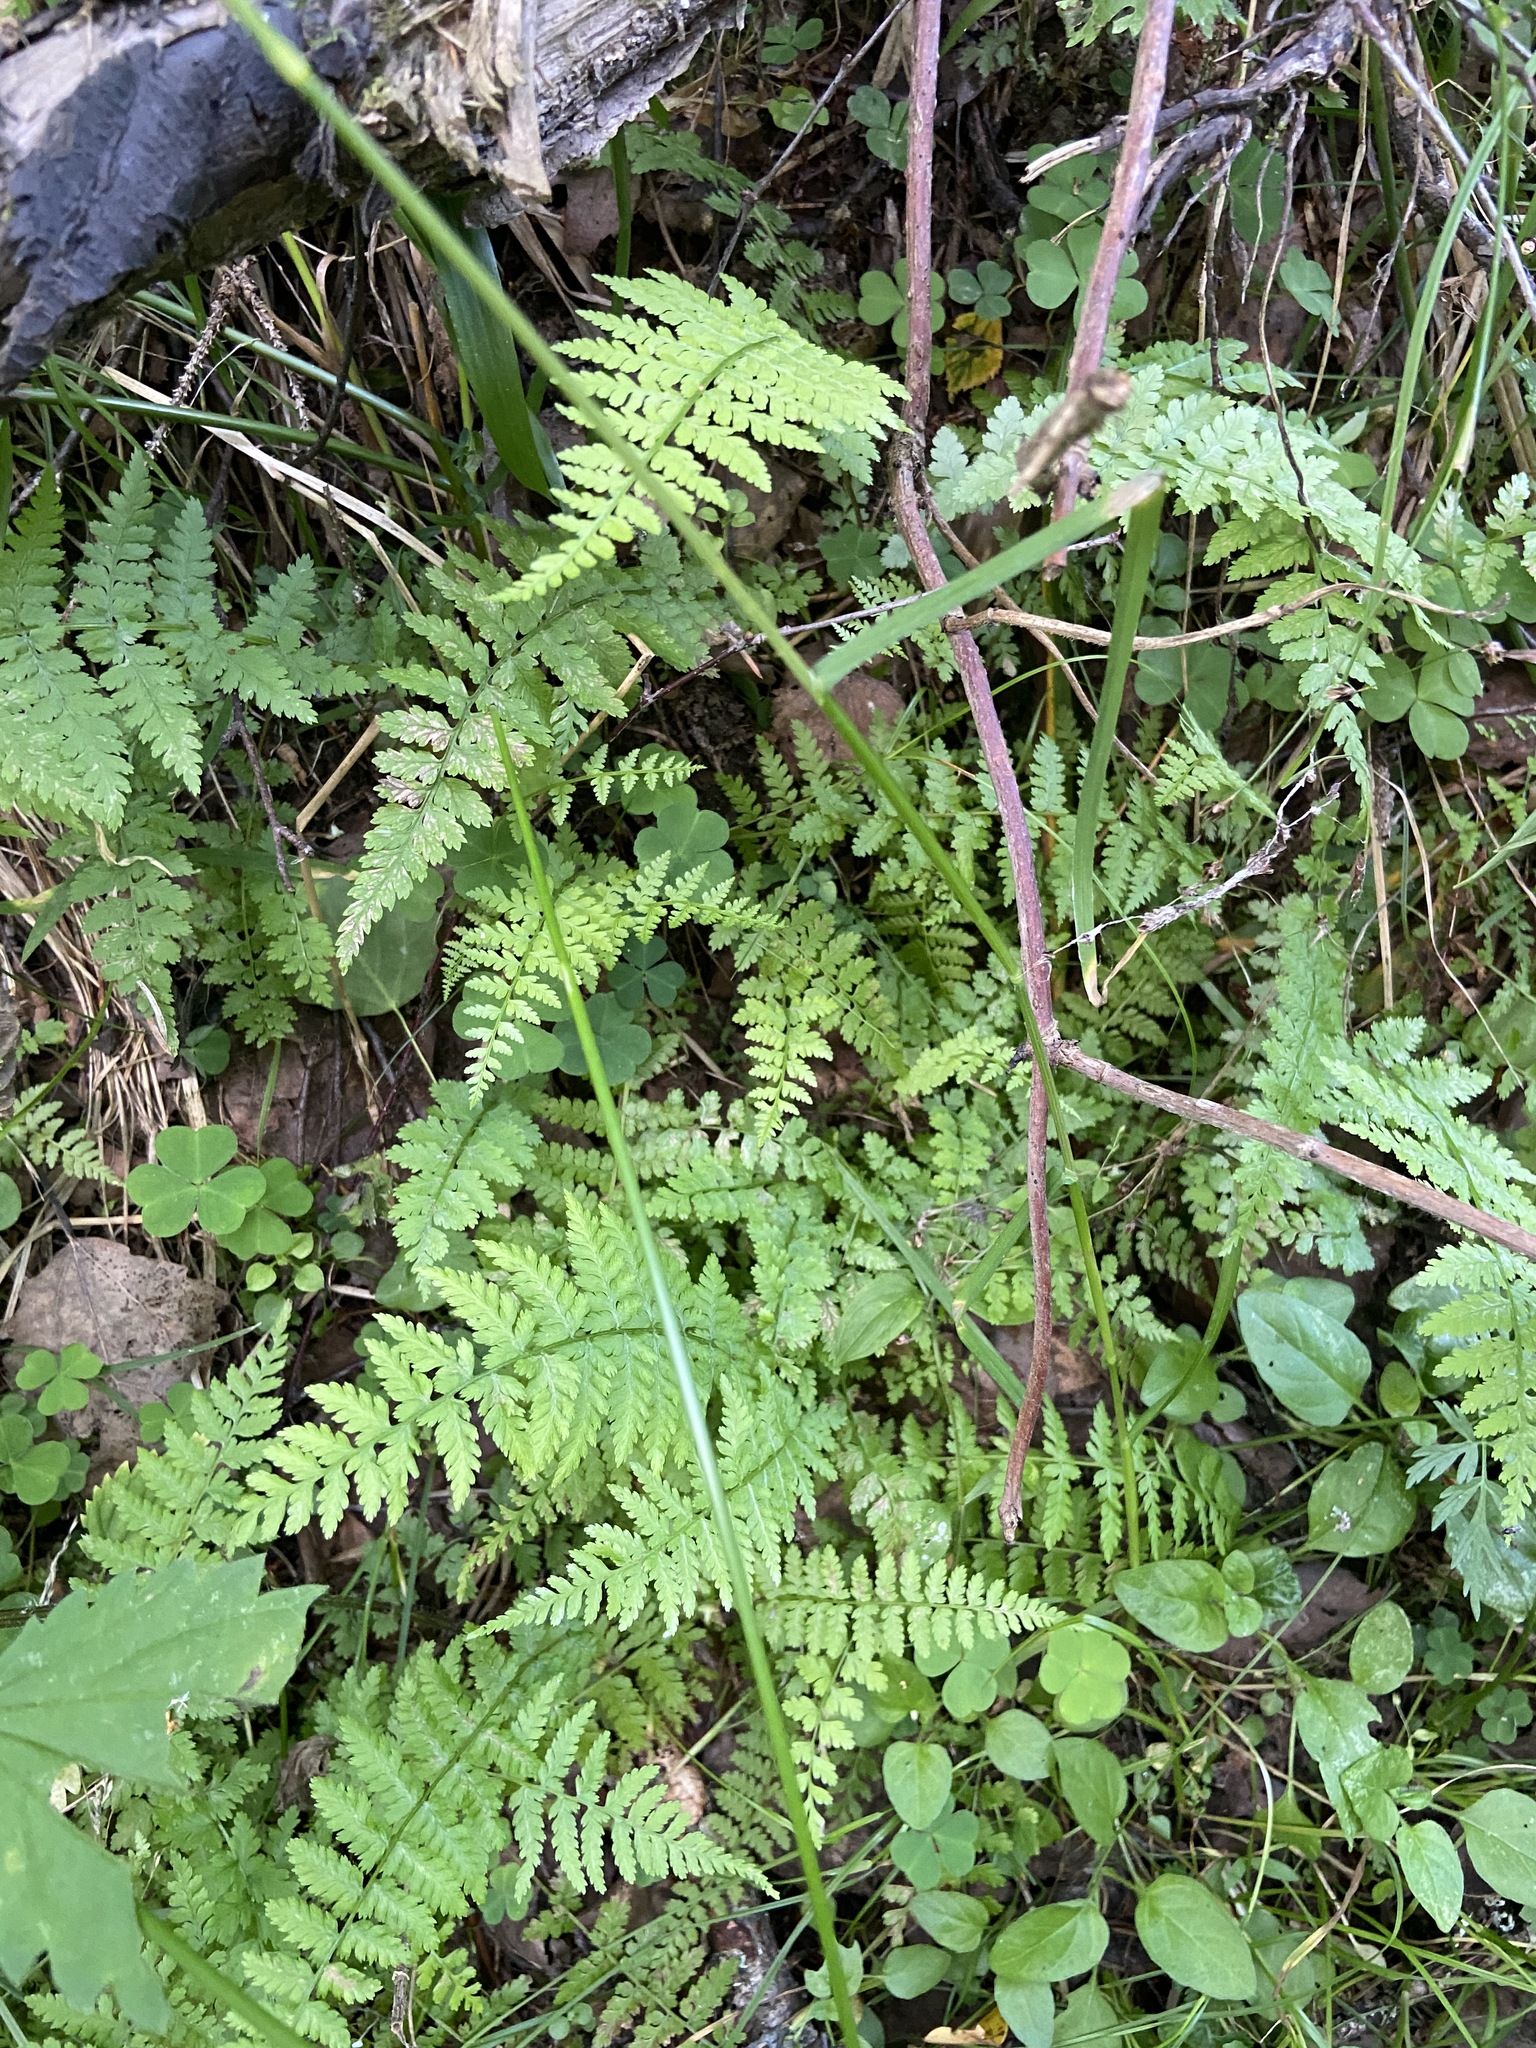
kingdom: Plantae
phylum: Tracheophyta
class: Polypodiopsida
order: Polypodiales
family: Athyriaceae
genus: Athyrium
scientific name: Athyrium filix-femina
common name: Lady fern
